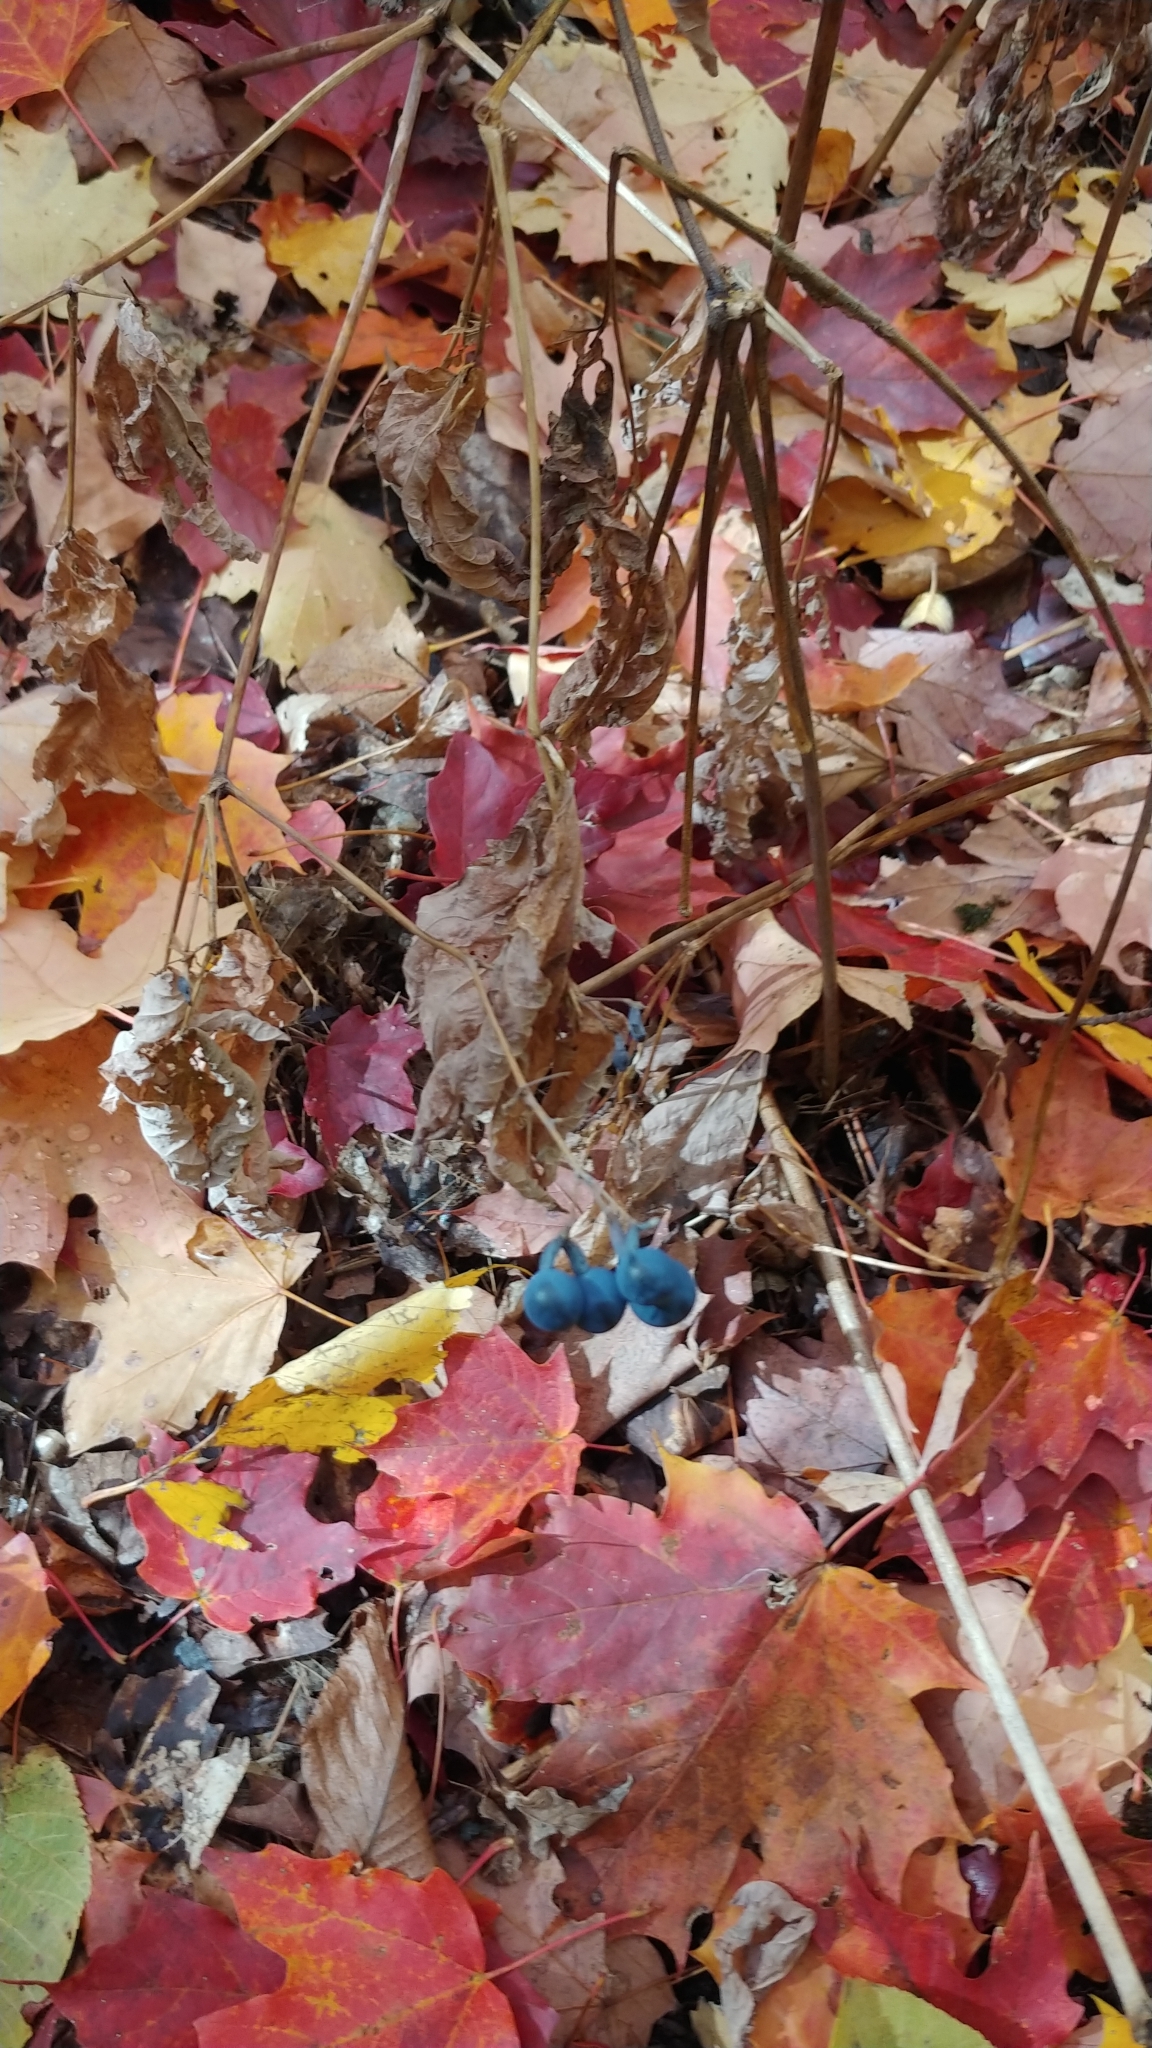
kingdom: Plantae
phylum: Tracheophyta
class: Magnoliopsida
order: Ranunculales
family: Berberidaceae
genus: Caulophyllum
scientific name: Caulophyllum
